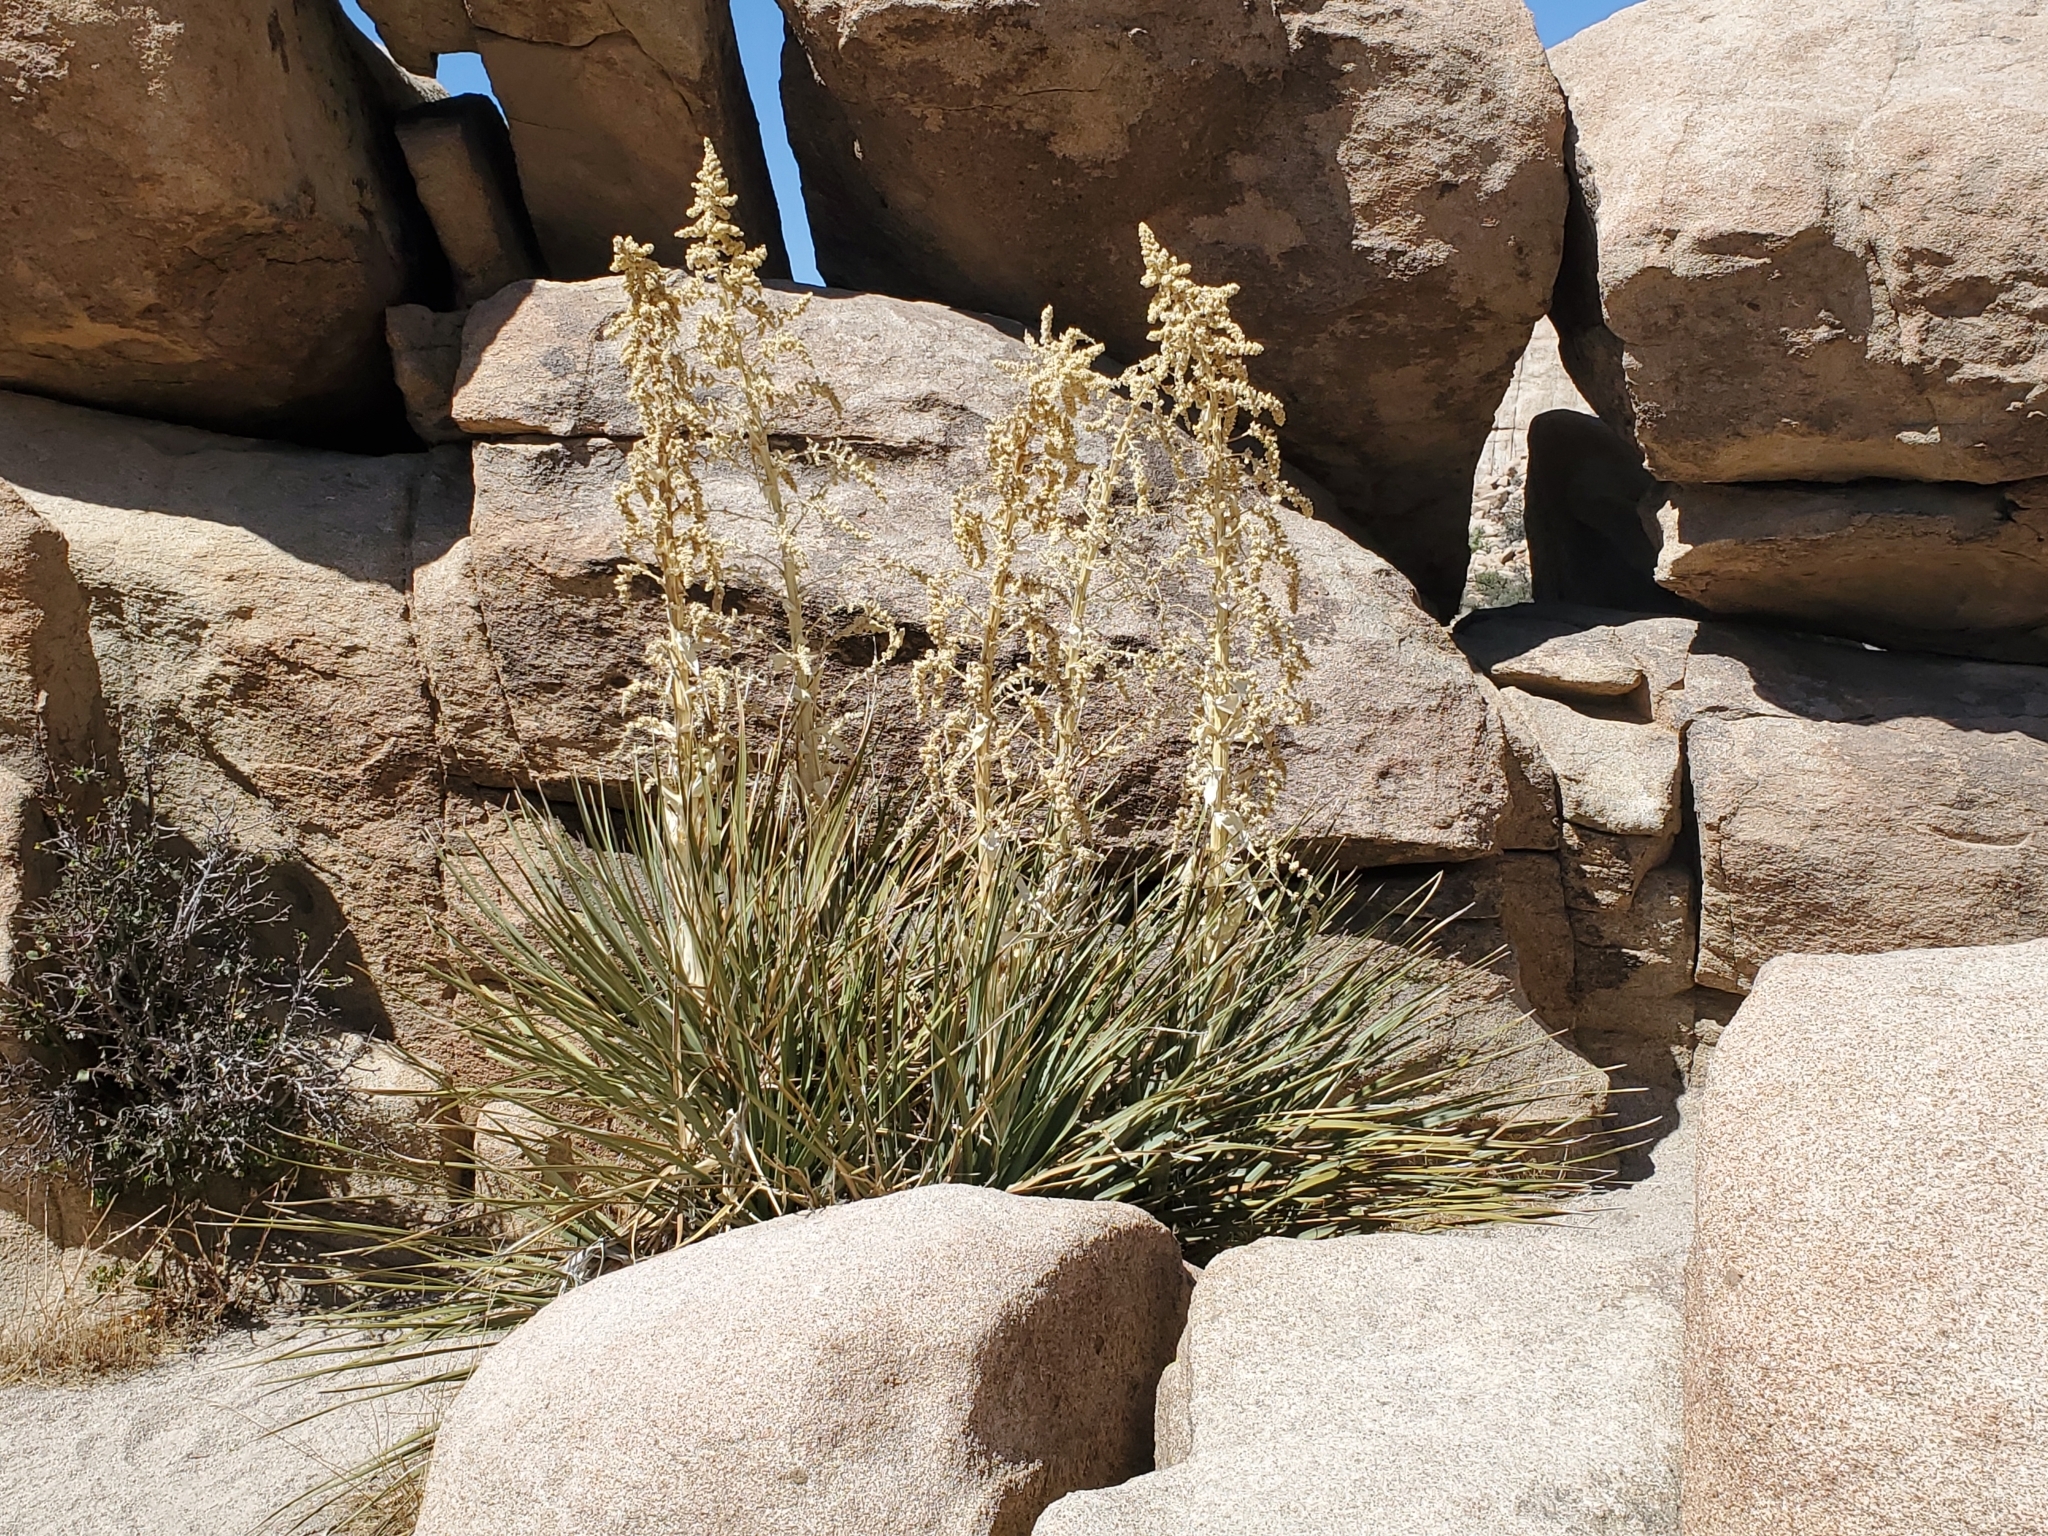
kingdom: Plantae
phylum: Tracheophyta
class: Liliopsida
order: Asparagales
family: Asparagaceae
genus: Nolina
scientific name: Nolina parryi
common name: Parry nolina
